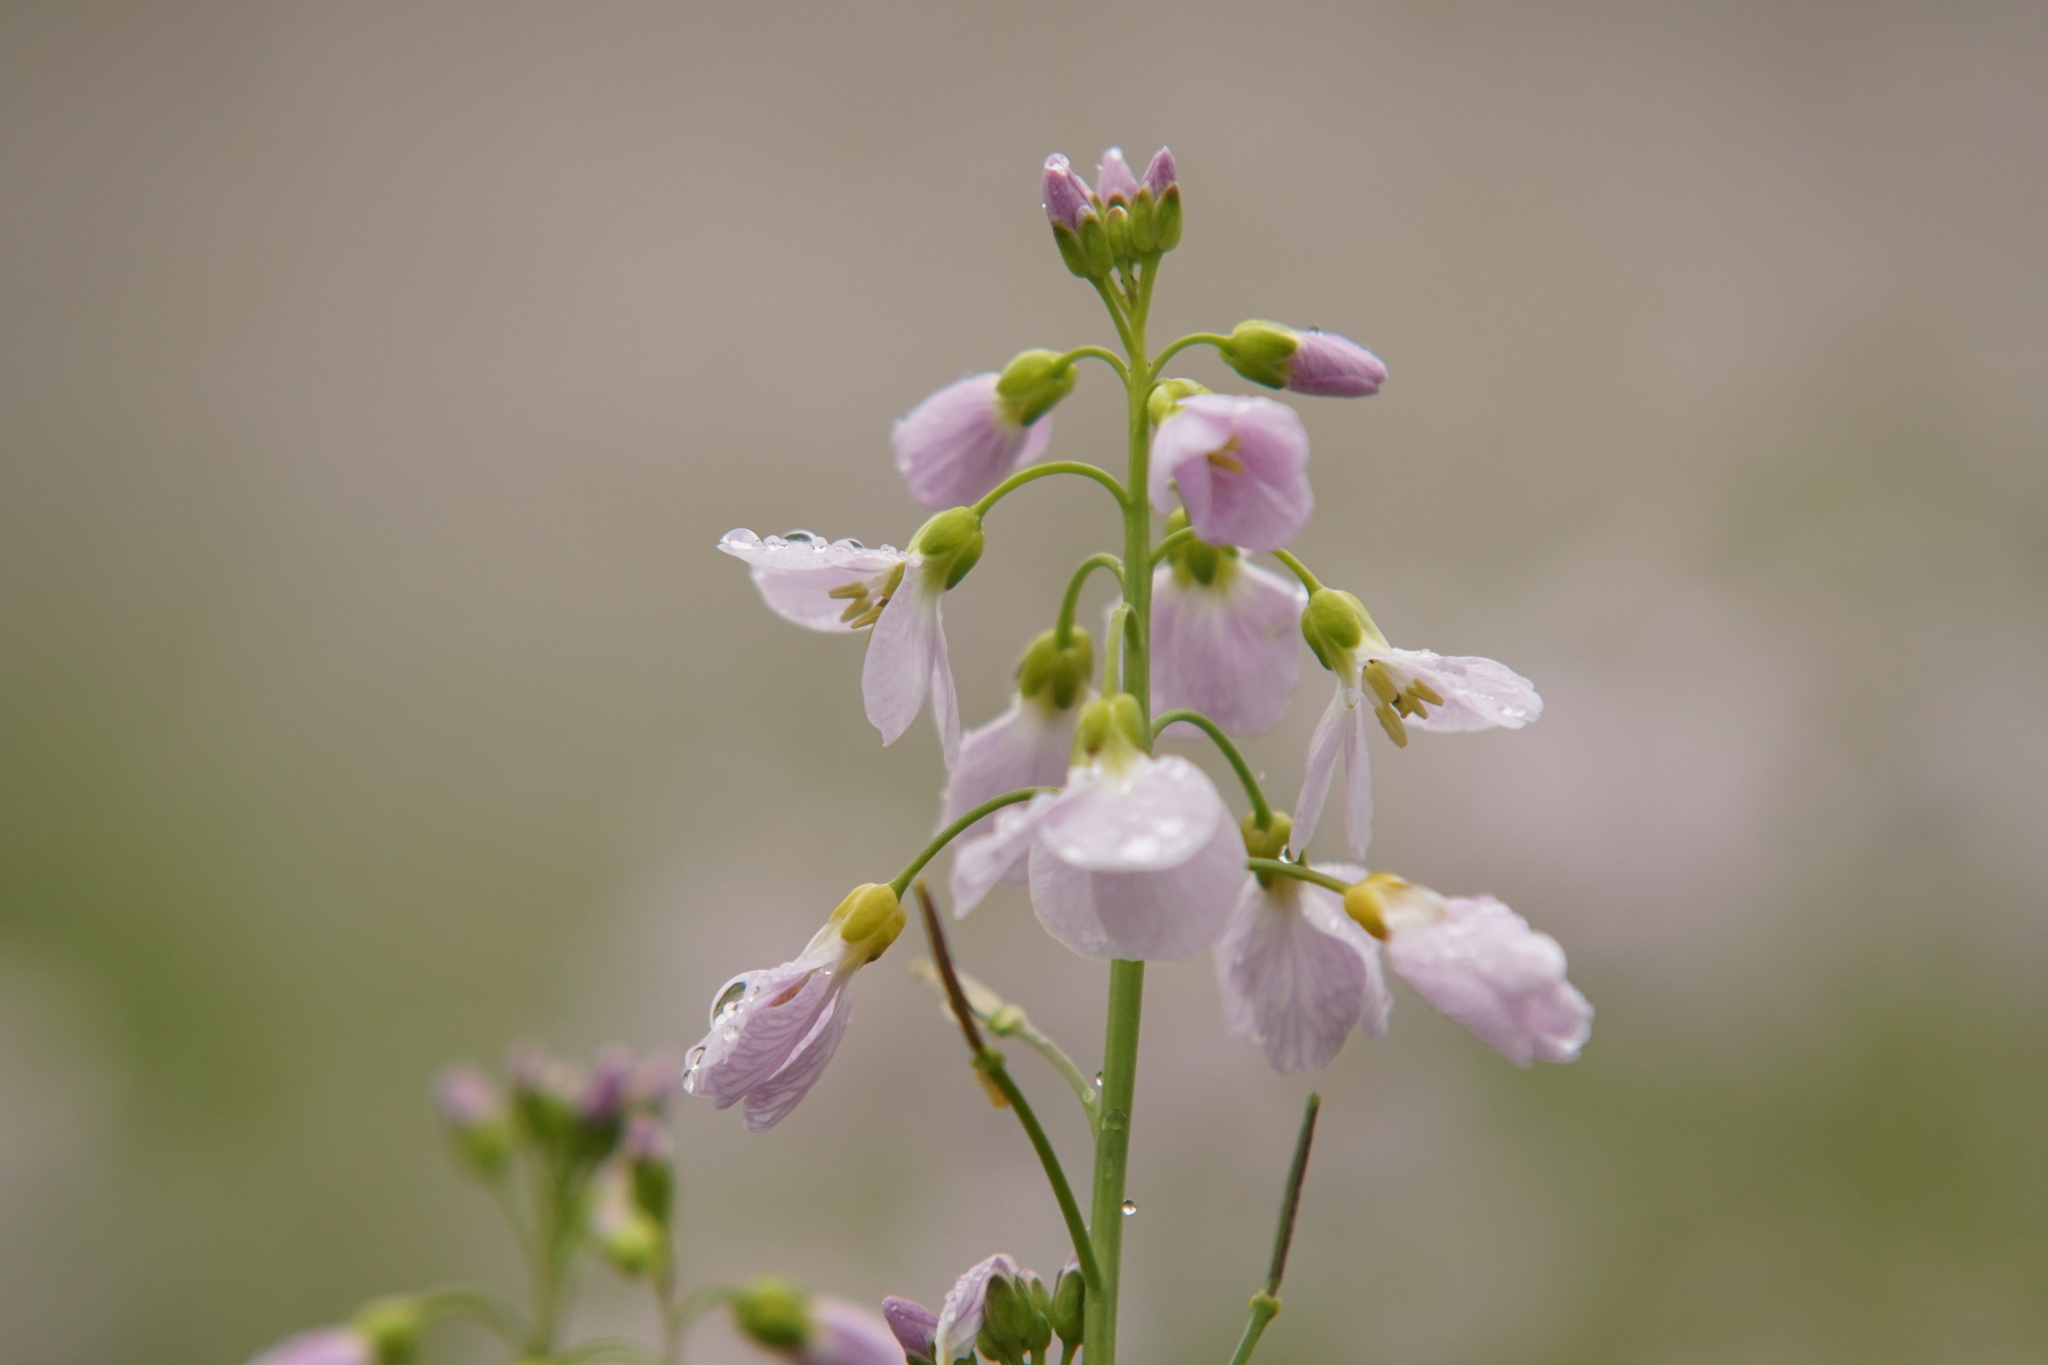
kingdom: Plantae
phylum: Tracheophyta
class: Magnoliopsida
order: Brassicales
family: Brassicaceae
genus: Cardamine
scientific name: Cardamine pratensis
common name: Cuckoo flower
